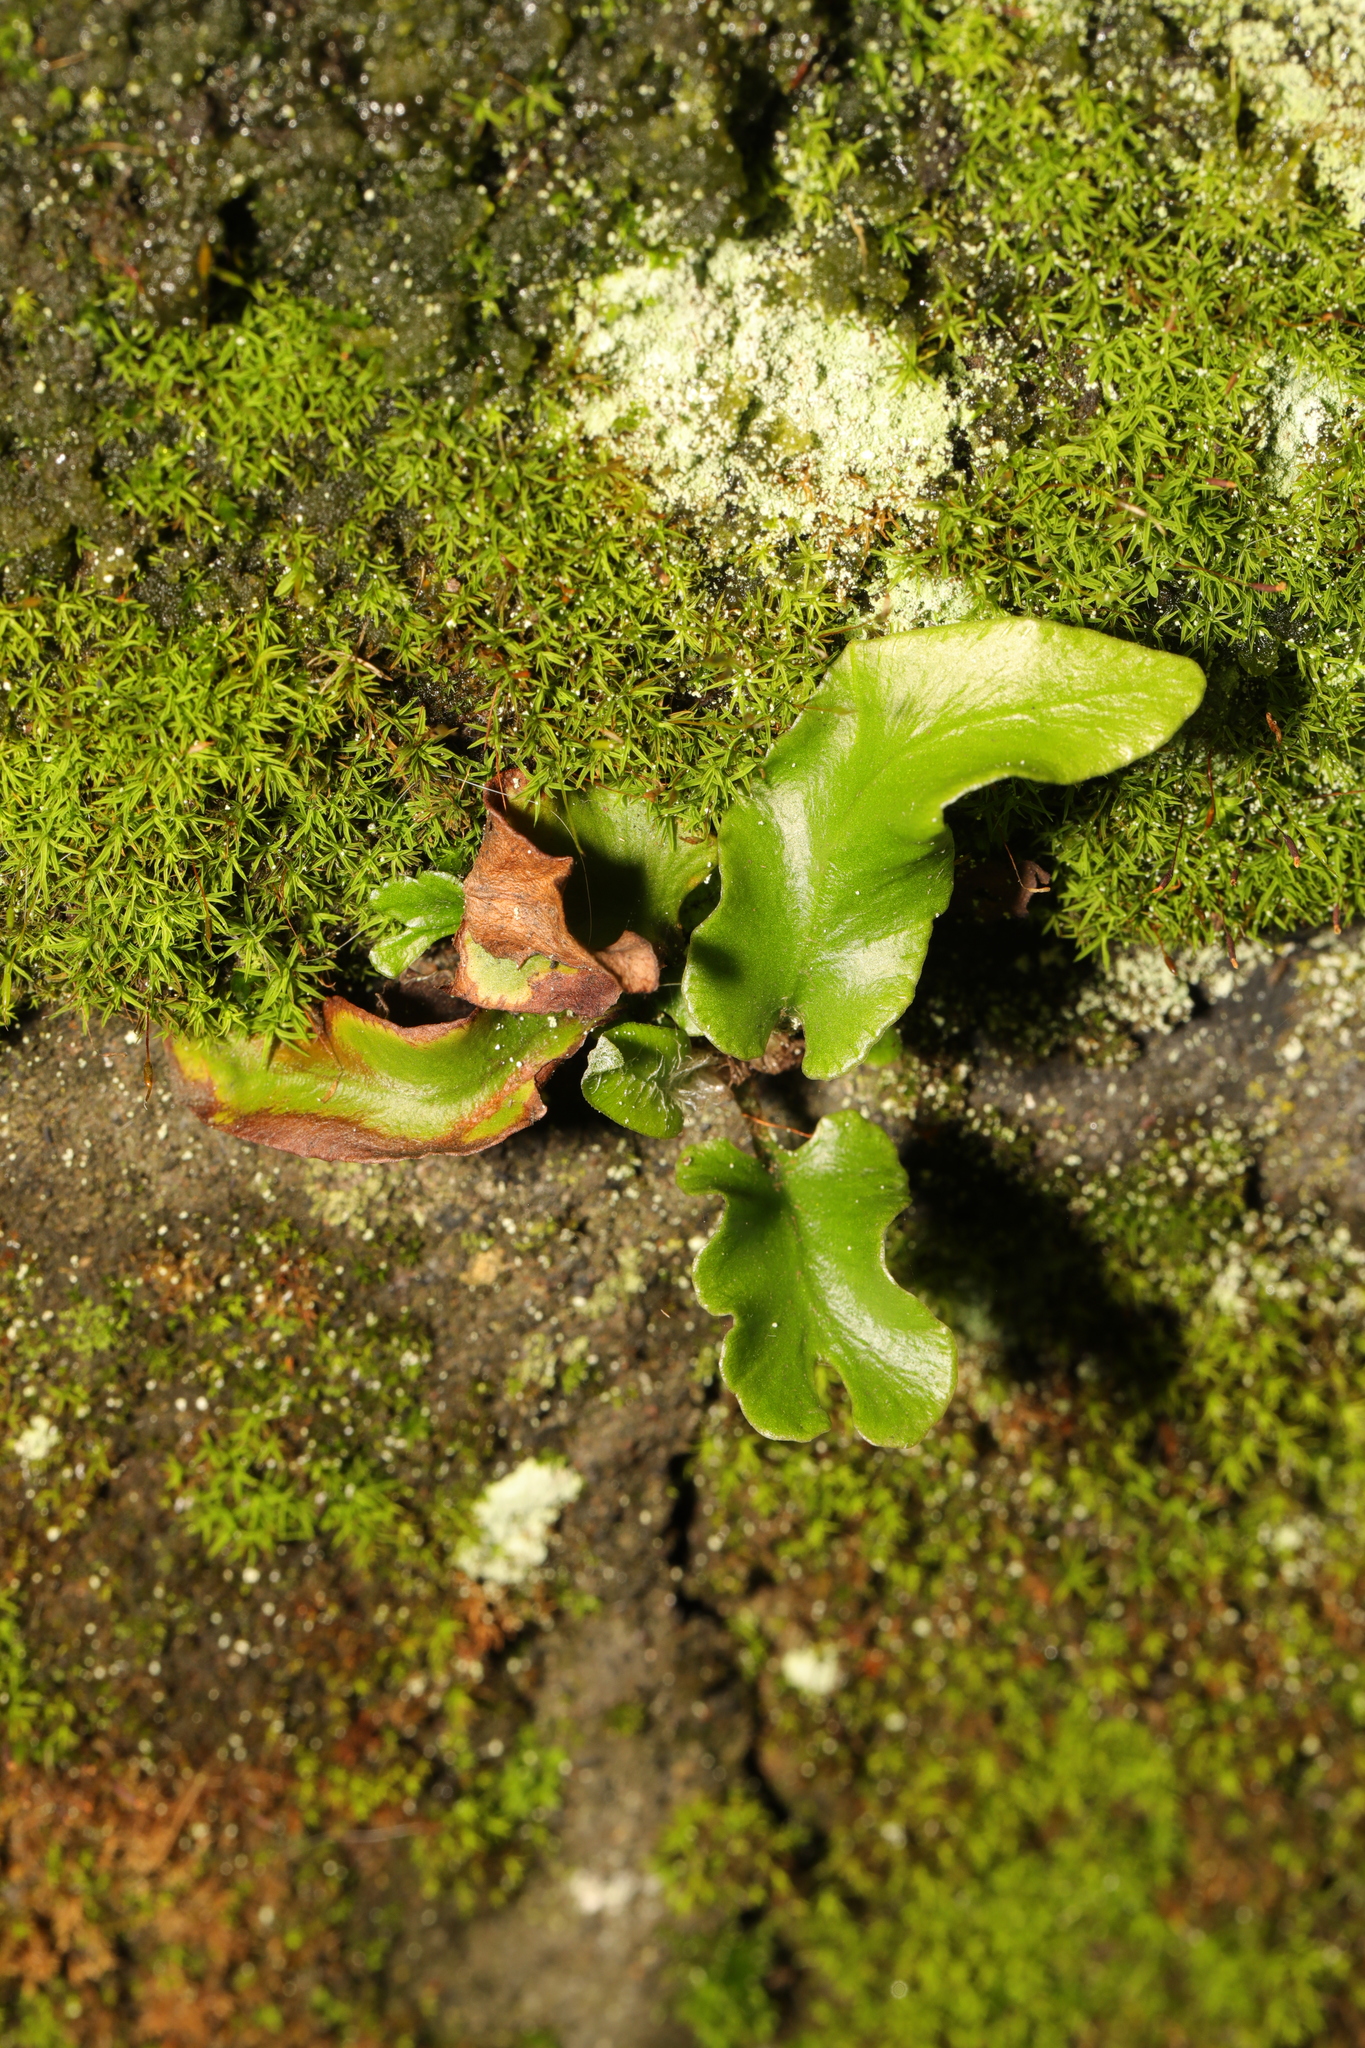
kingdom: Plantae
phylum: Tracheophyta
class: Polypodiopsida
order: Polypodiales
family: Aspleniaceae
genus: Asplenium
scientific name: Asplenium scolopendrium
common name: Hart's-tongue fern
